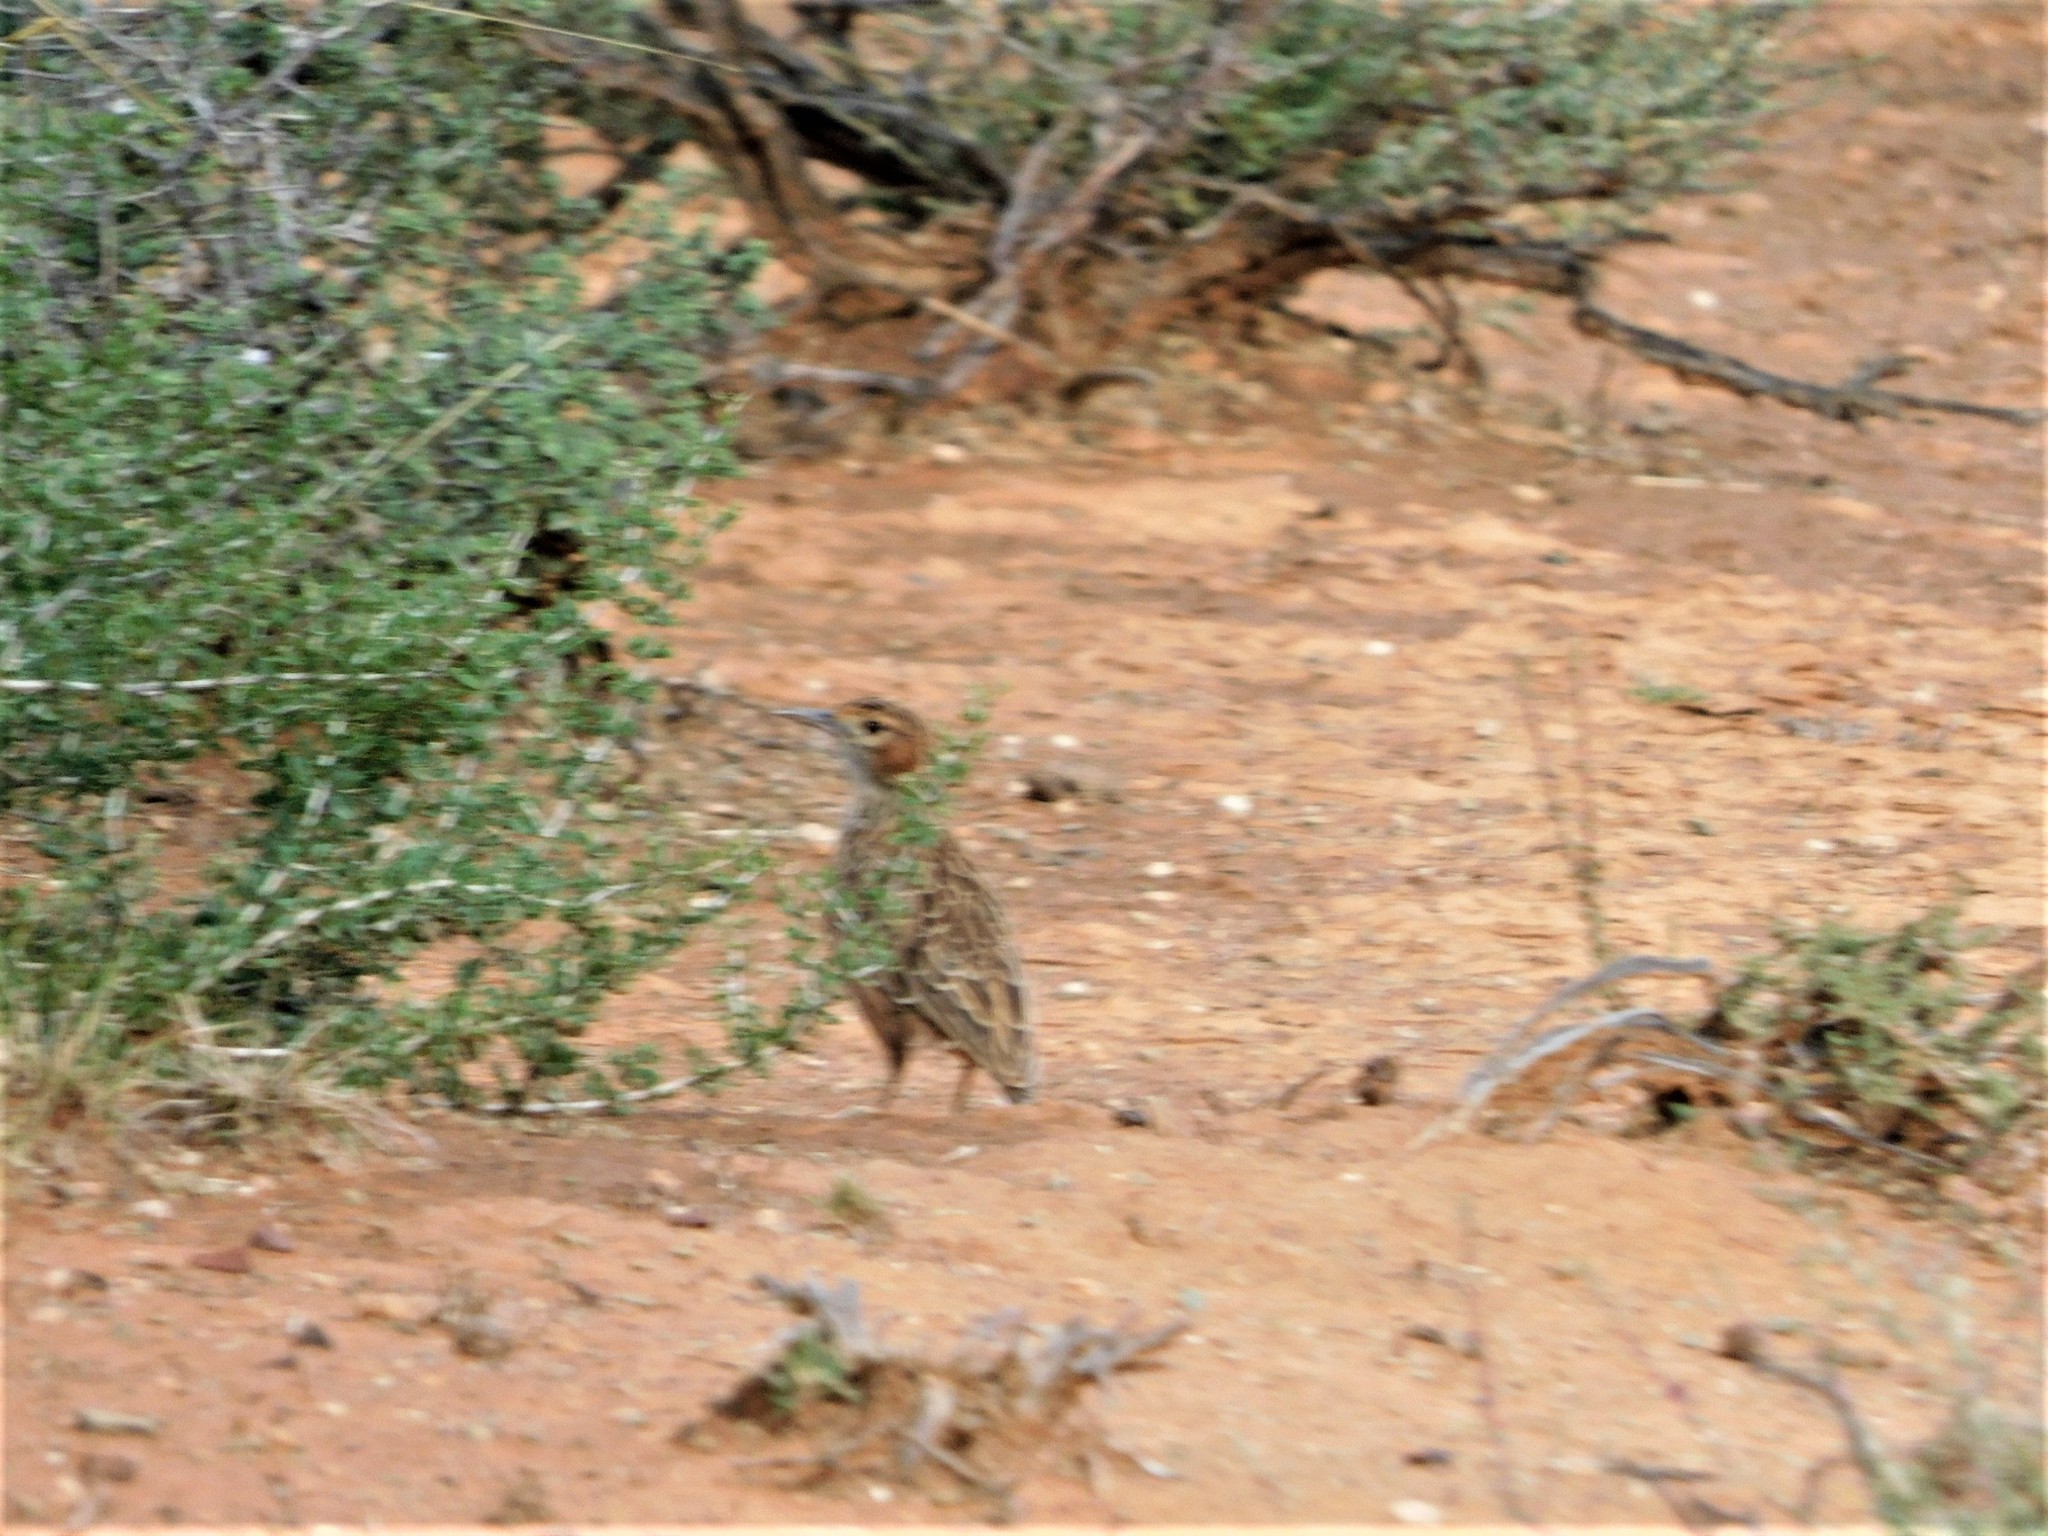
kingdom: Animalia
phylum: Chordata
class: Aves
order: Passeriformes
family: Alaudidae
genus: Chersomanes
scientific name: Chersomanes albofasciata
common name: Spike-heeled lark
